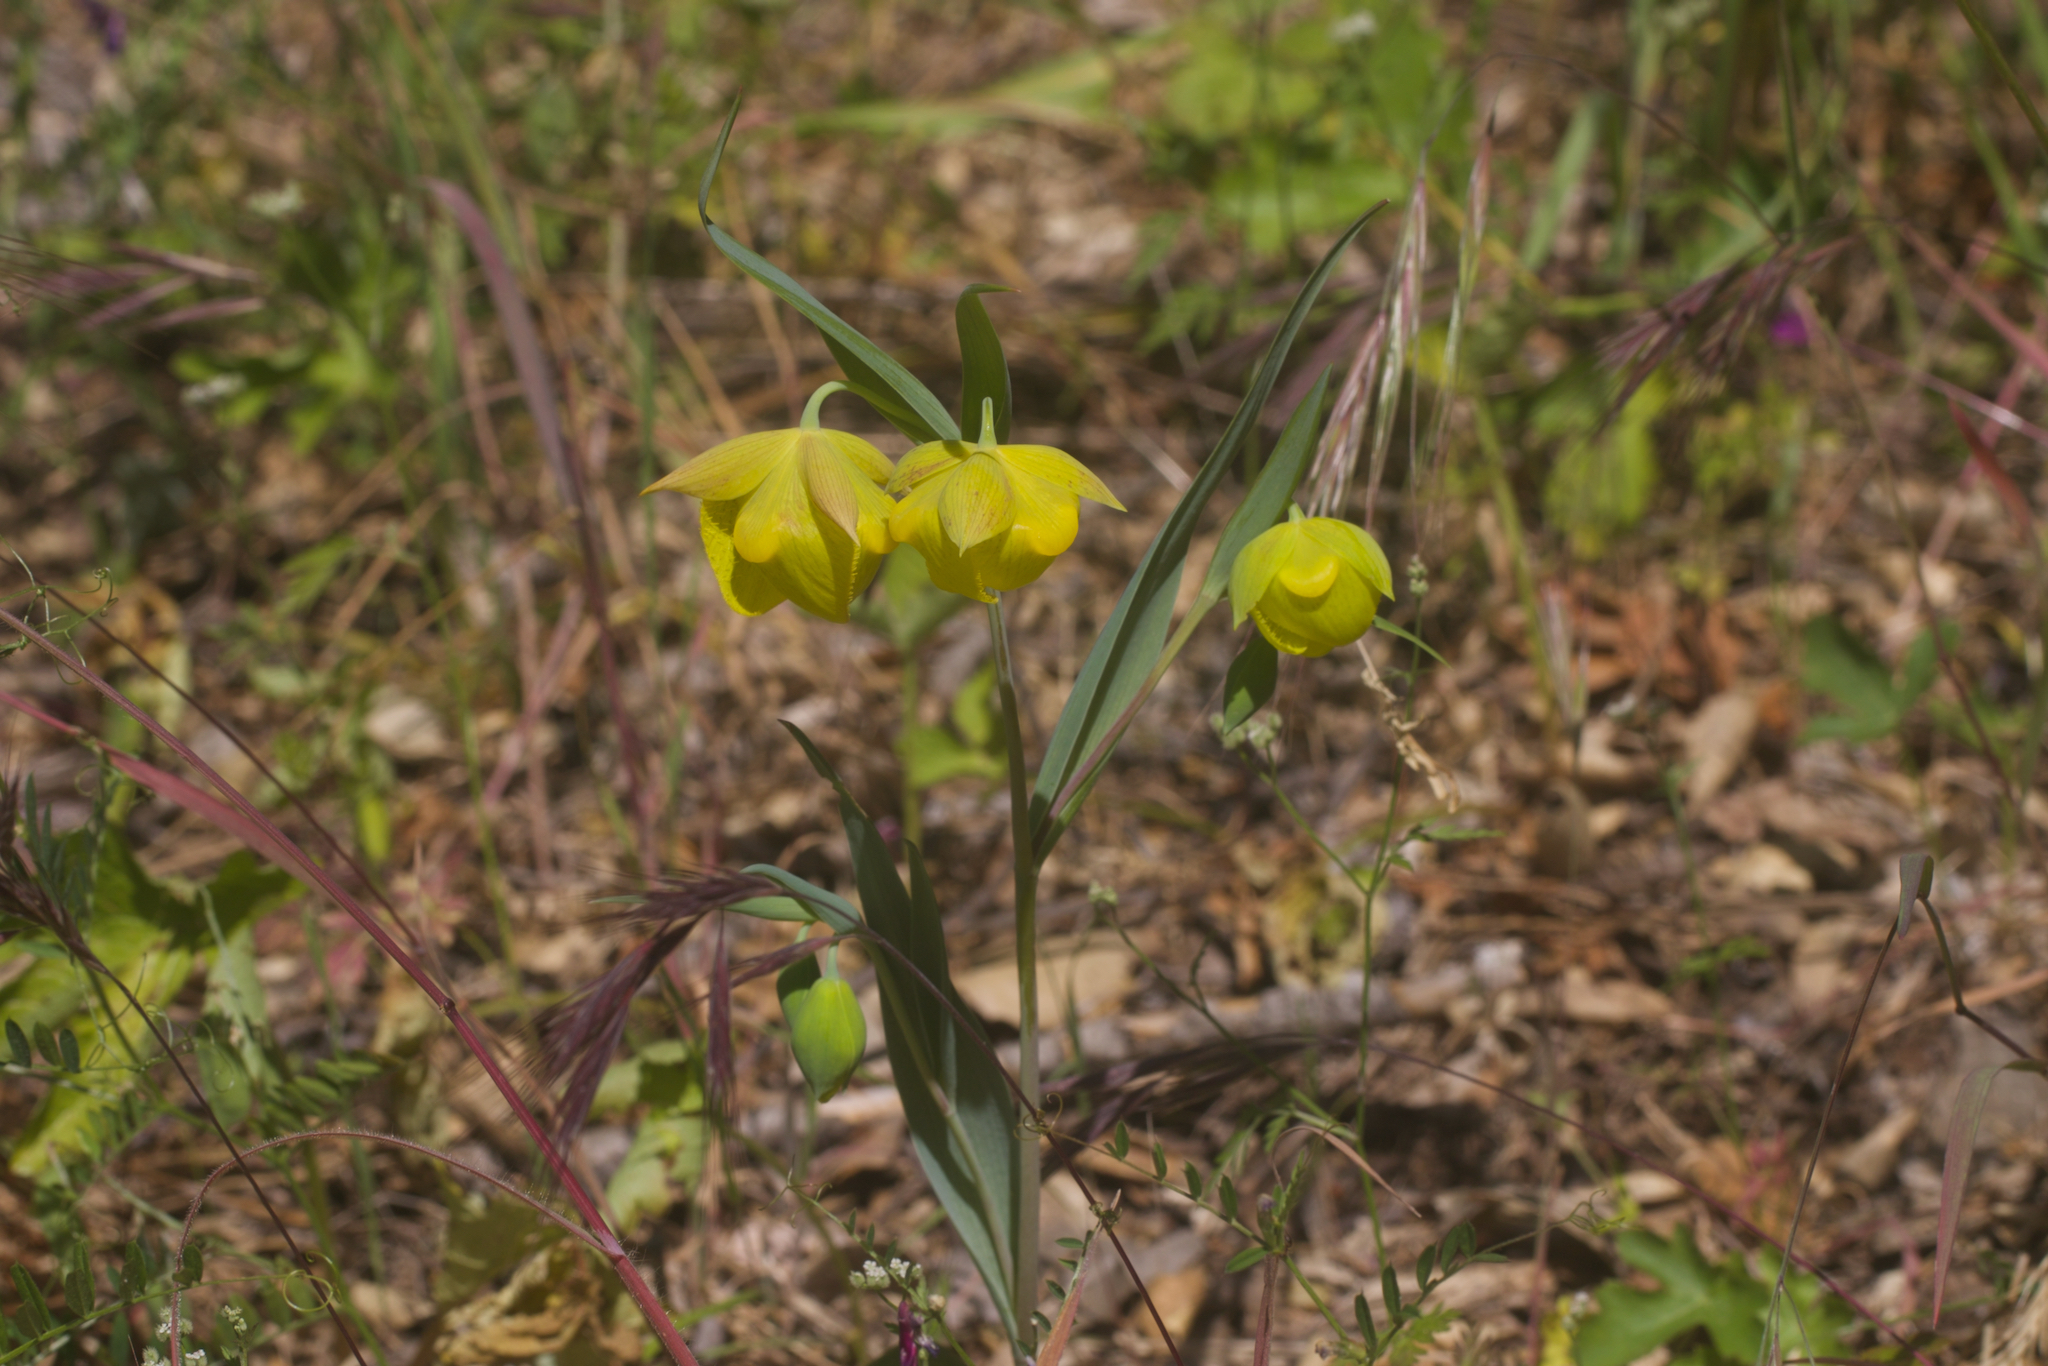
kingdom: Plantae
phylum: Tracheophyta
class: Liliopsida
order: Liliales
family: Liliaceae
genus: Calochortus
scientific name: Calochortus pulchellus
